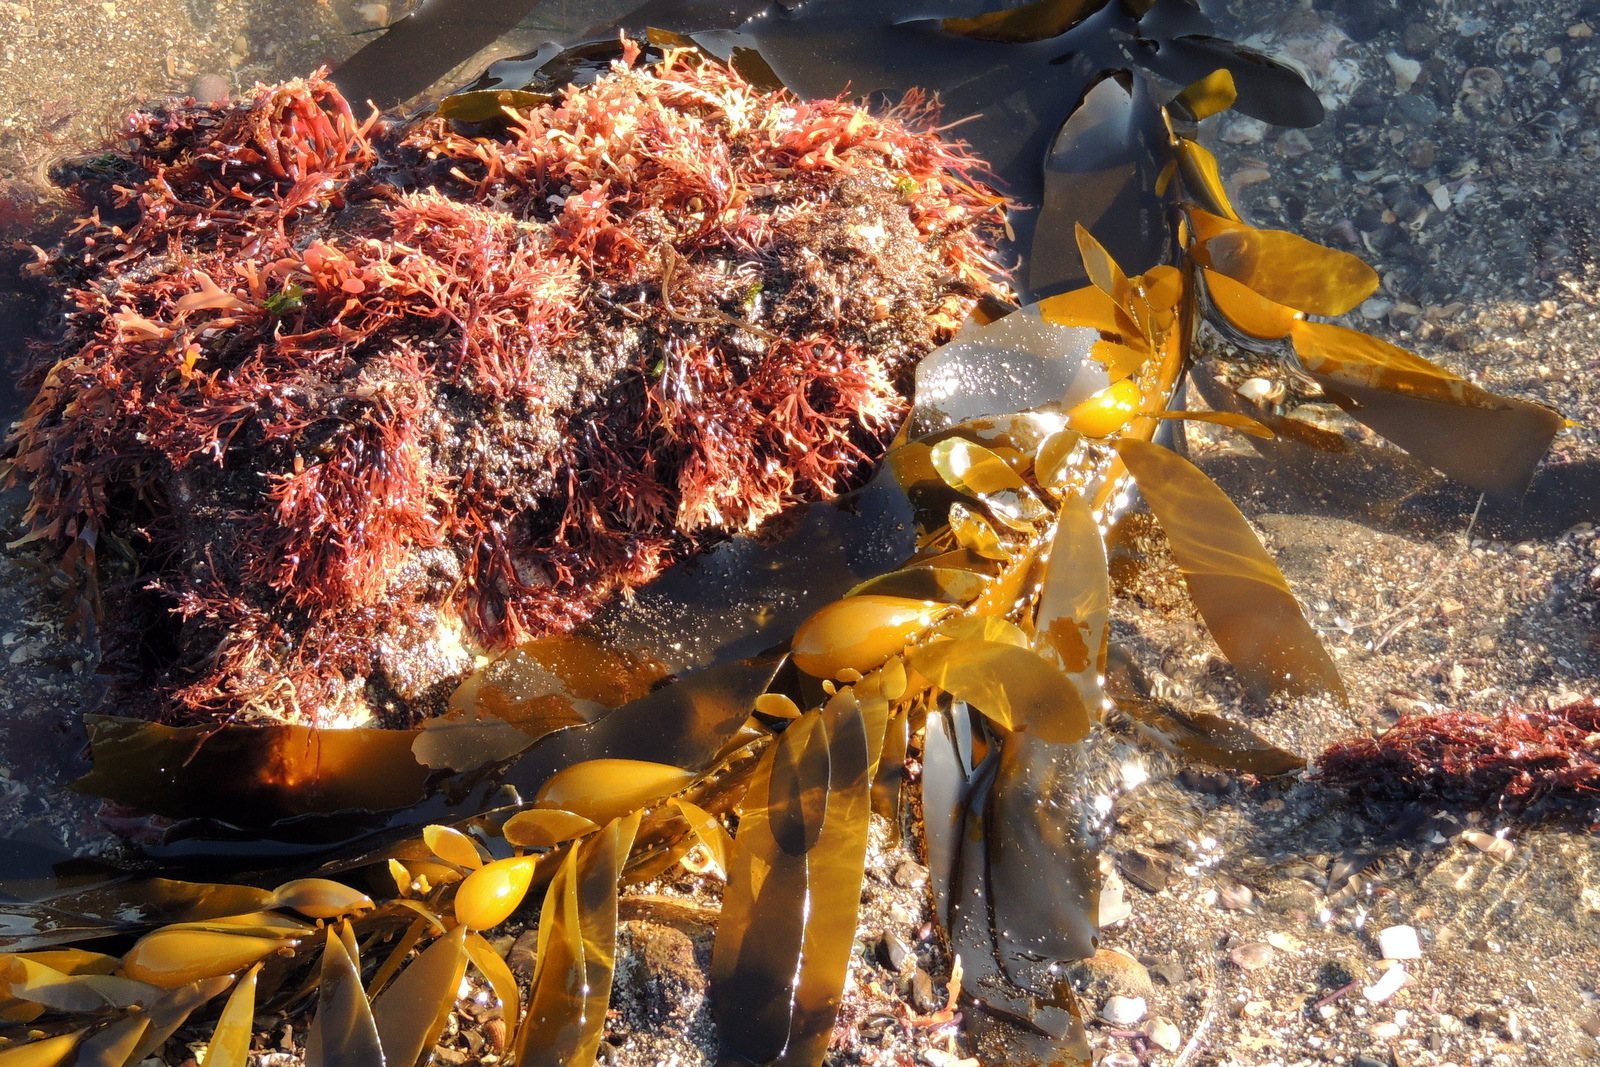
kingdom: Chromista
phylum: Ochrophyta
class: Phaeophyceae
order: Laminariales
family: Lessoniaceae
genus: Egregia
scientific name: Egregia menziesii
